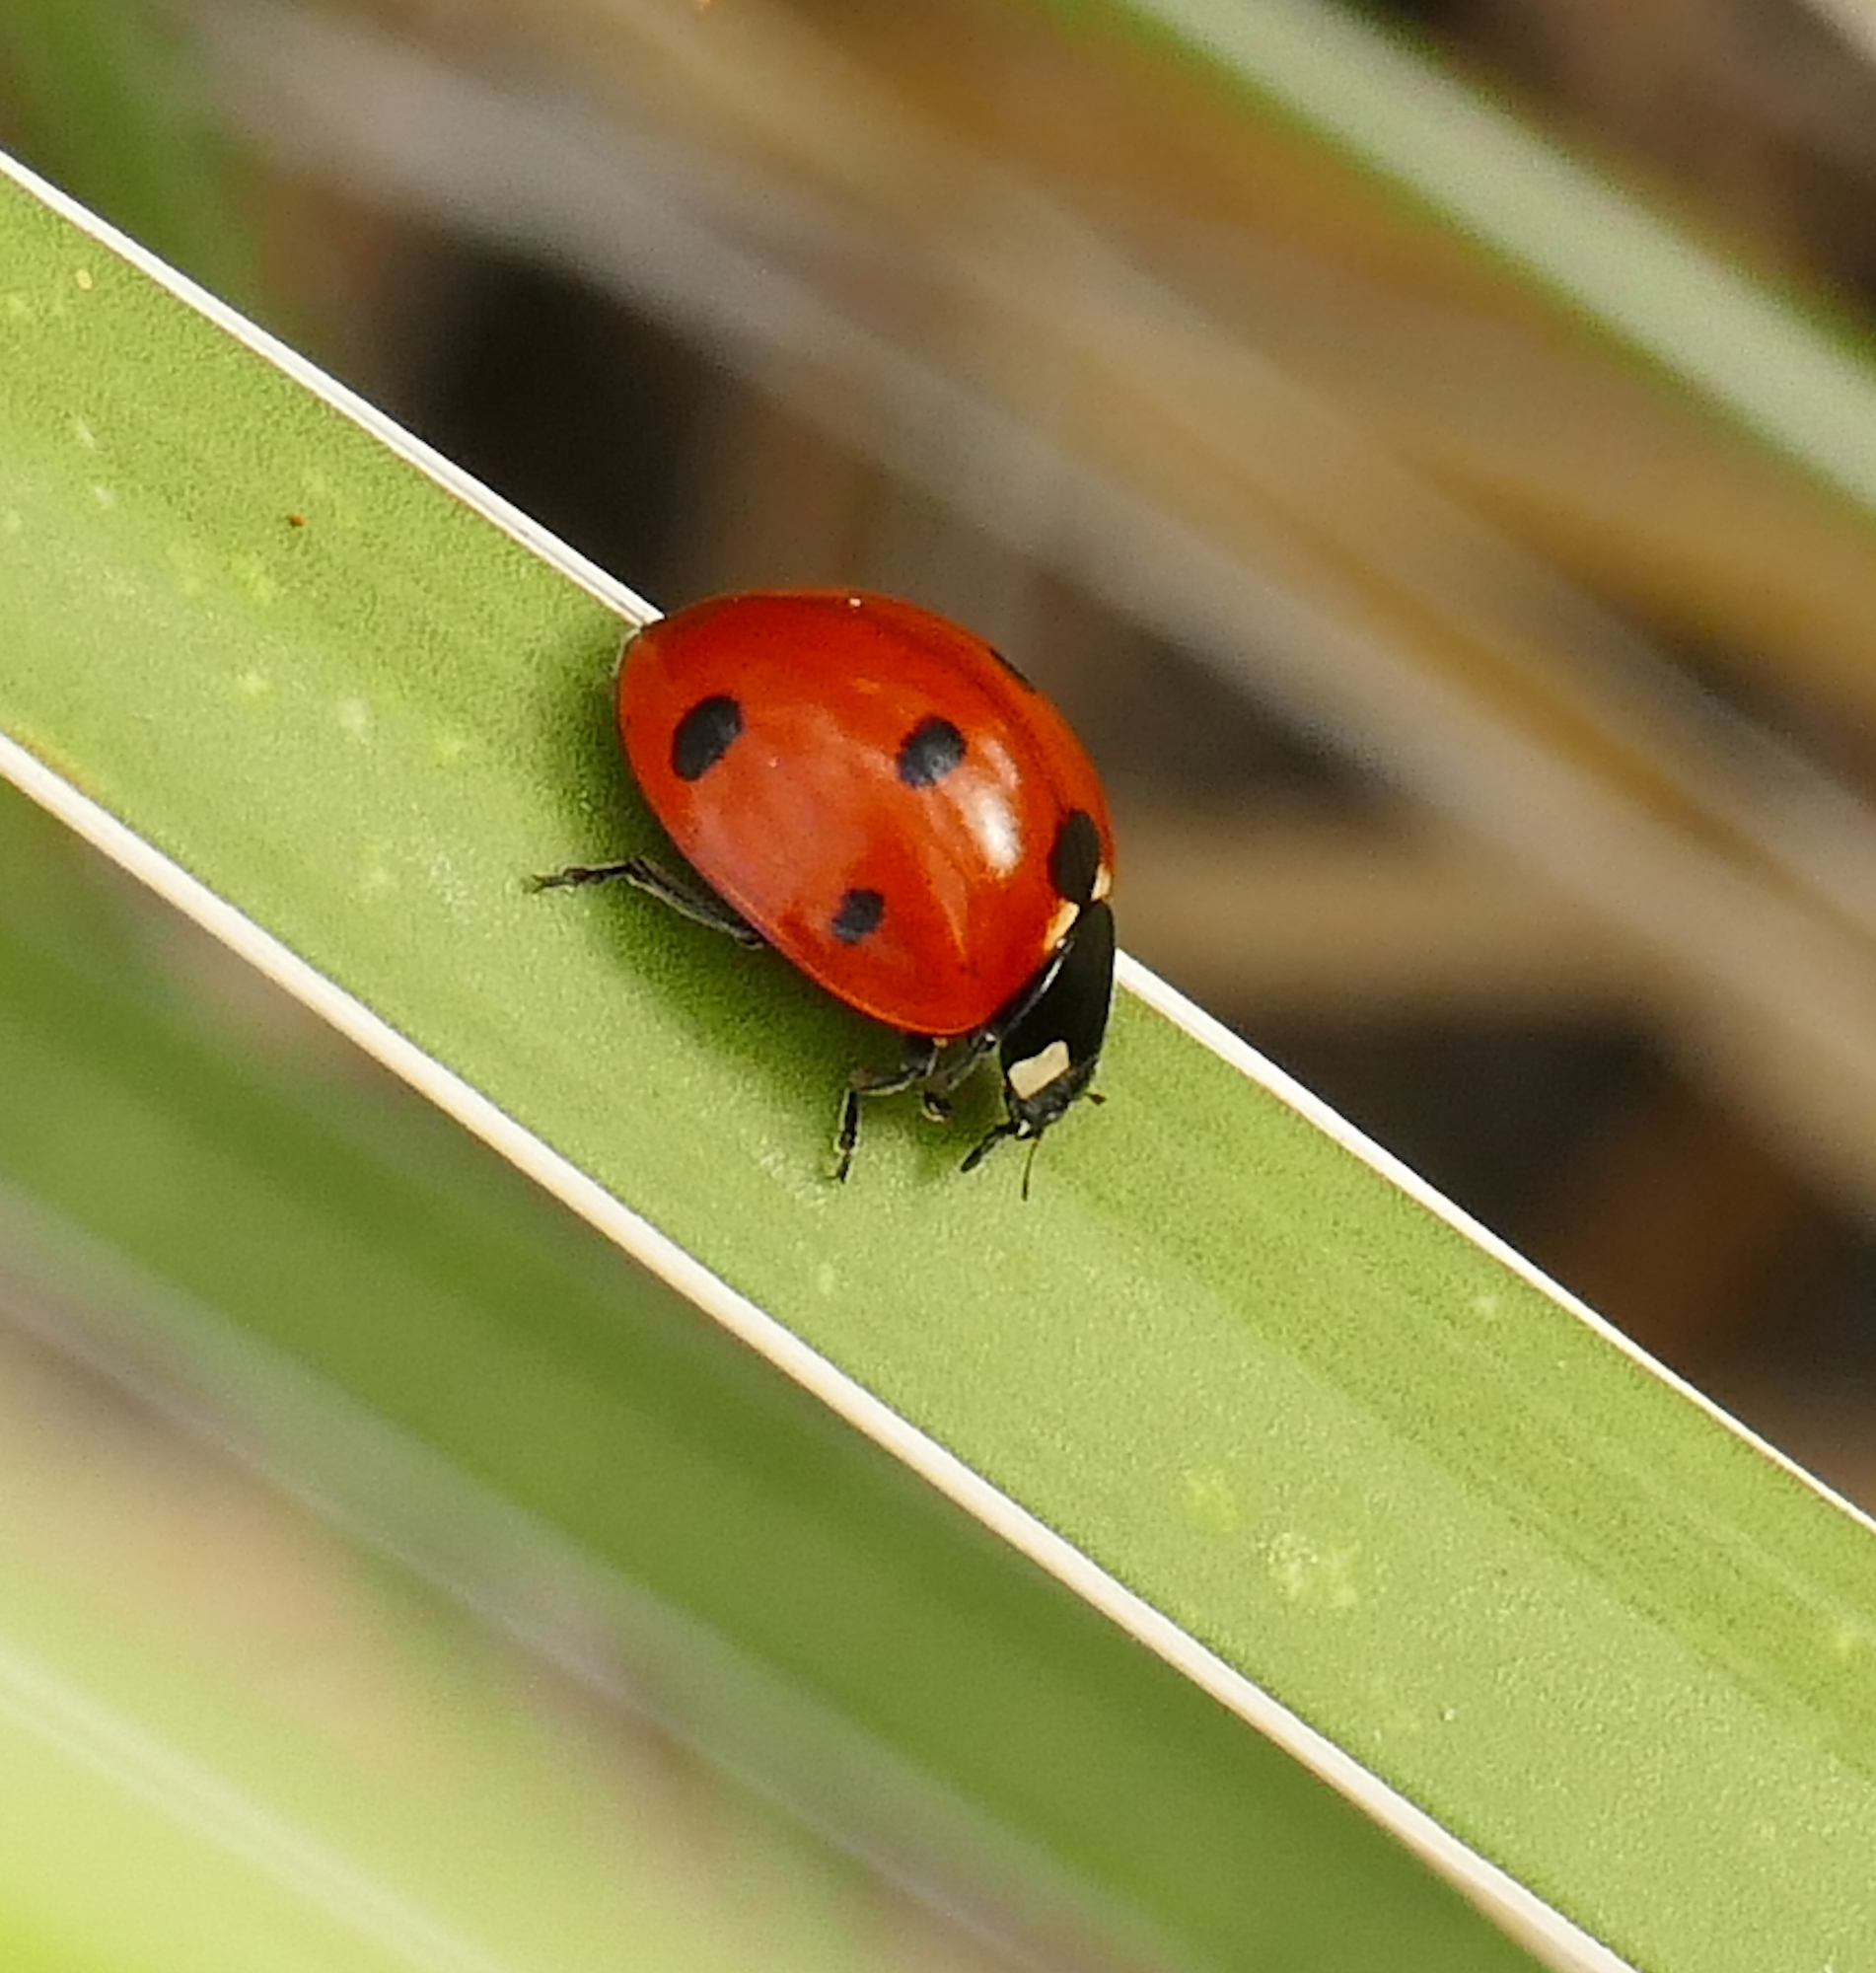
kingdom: Animalia
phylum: Arthropoda
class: Insecta
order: Coleoptera
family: Coccinellidae
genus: Coccinella
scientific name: Coccinella septempunctata
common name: Sevenspotted lady beetle
